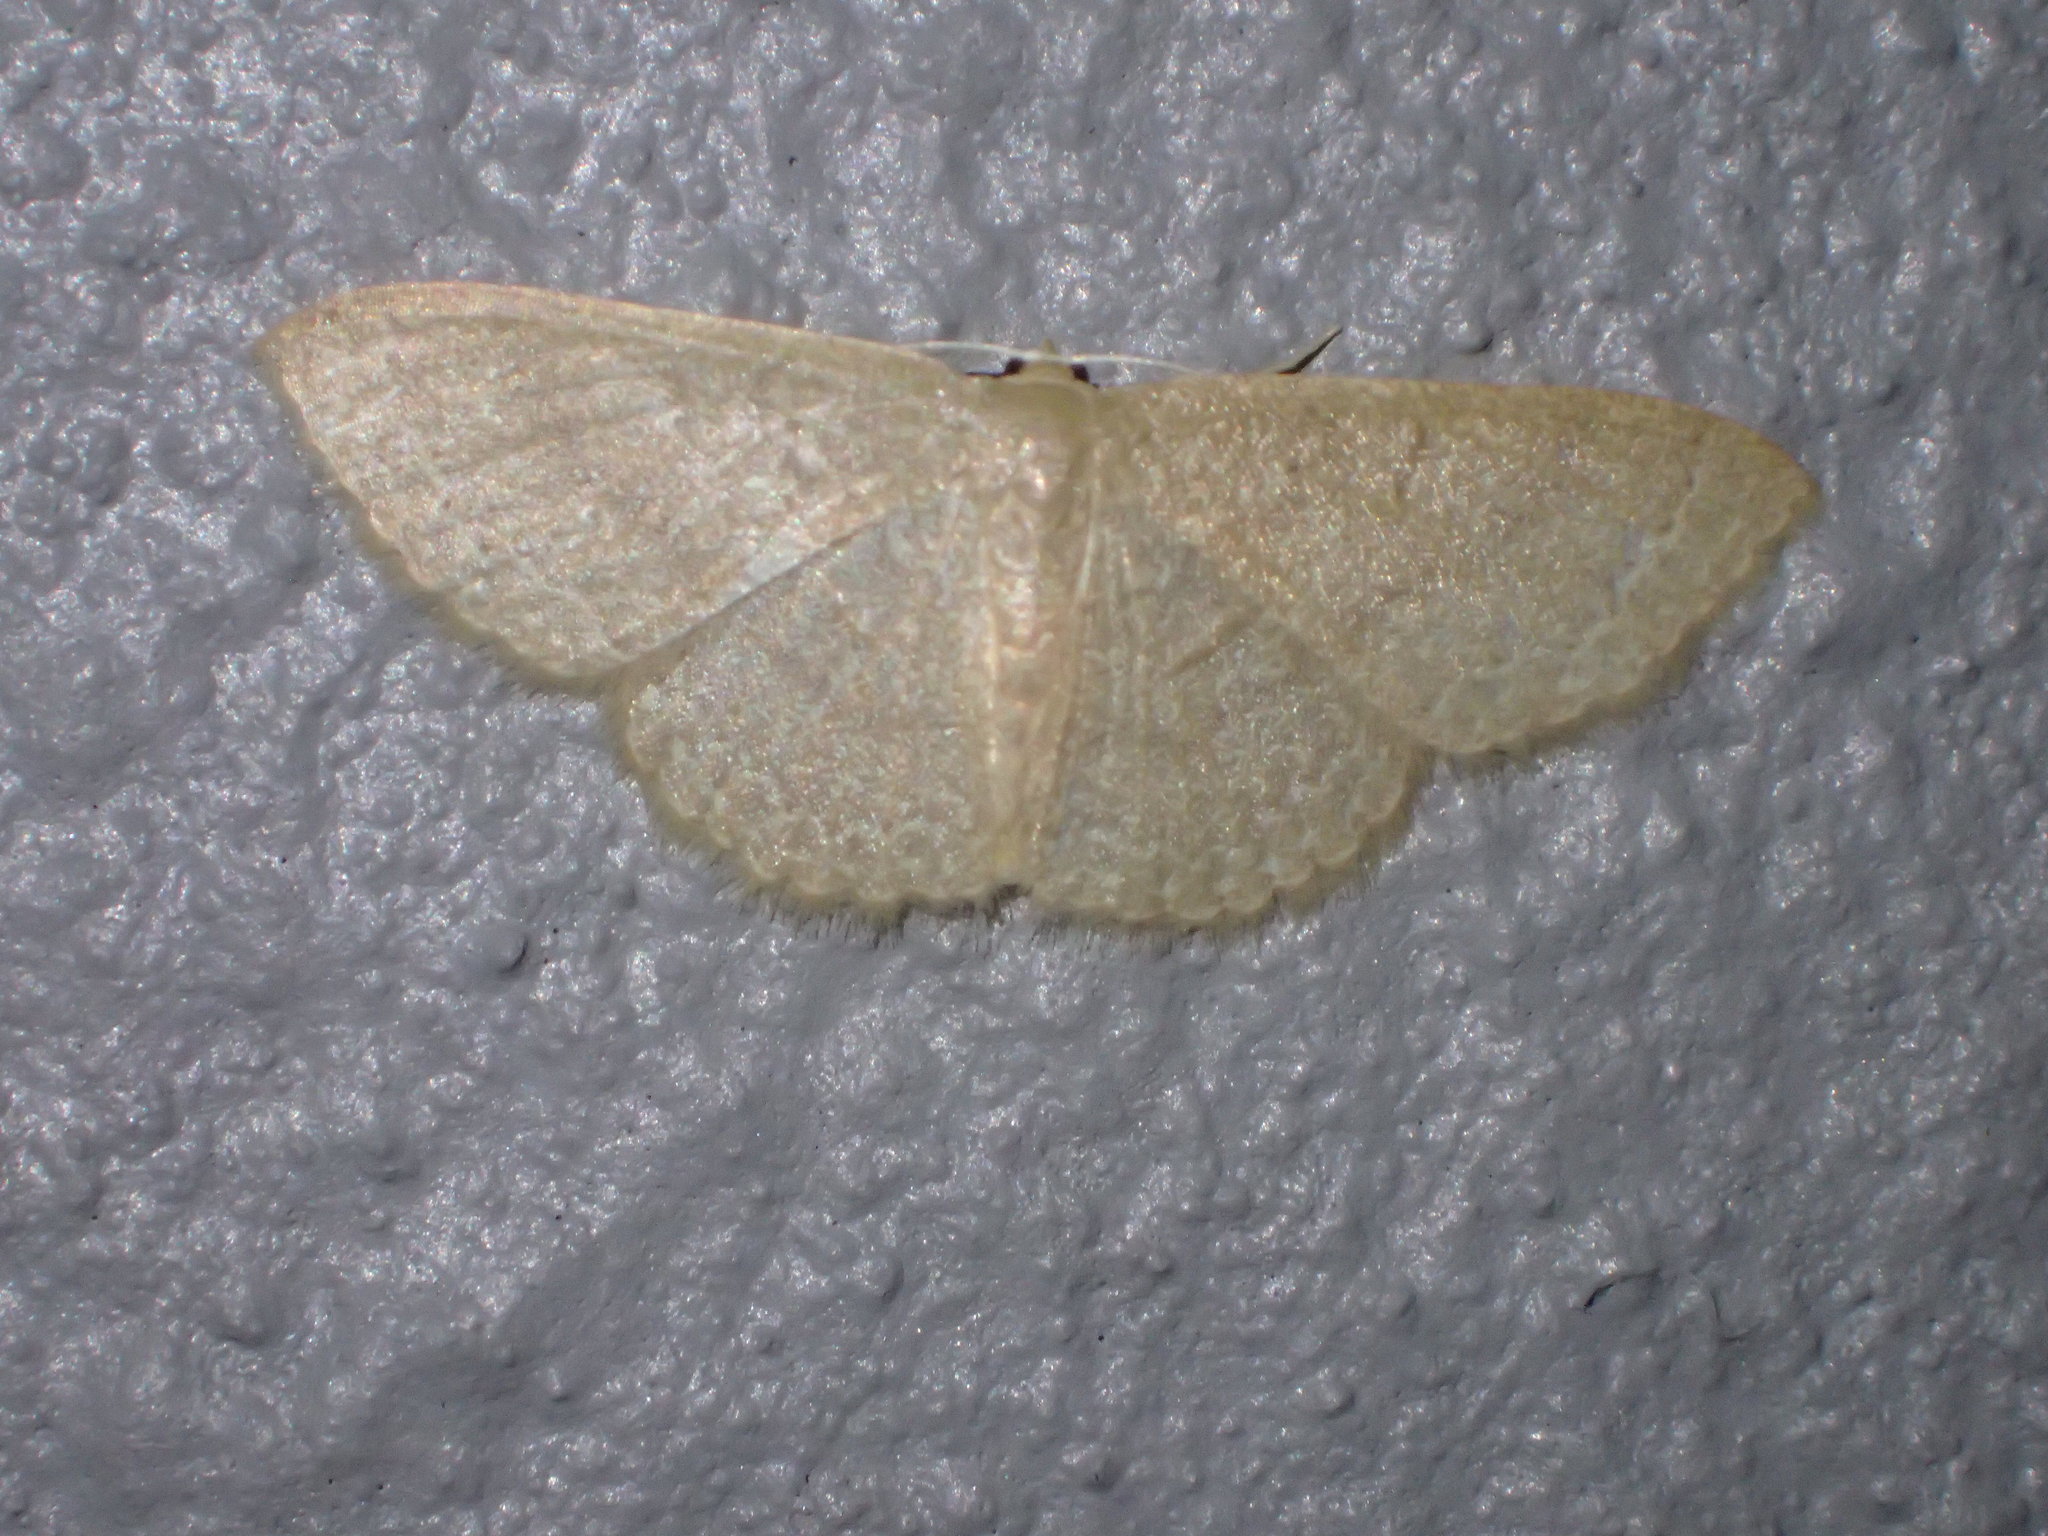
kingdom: Animalia
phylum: Arthropoda
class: Insecta
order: Lepidoptera
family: Geometridae
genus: Pleuroprucha
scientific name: Pleuroprucha insulsaria
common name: Common tan wave
